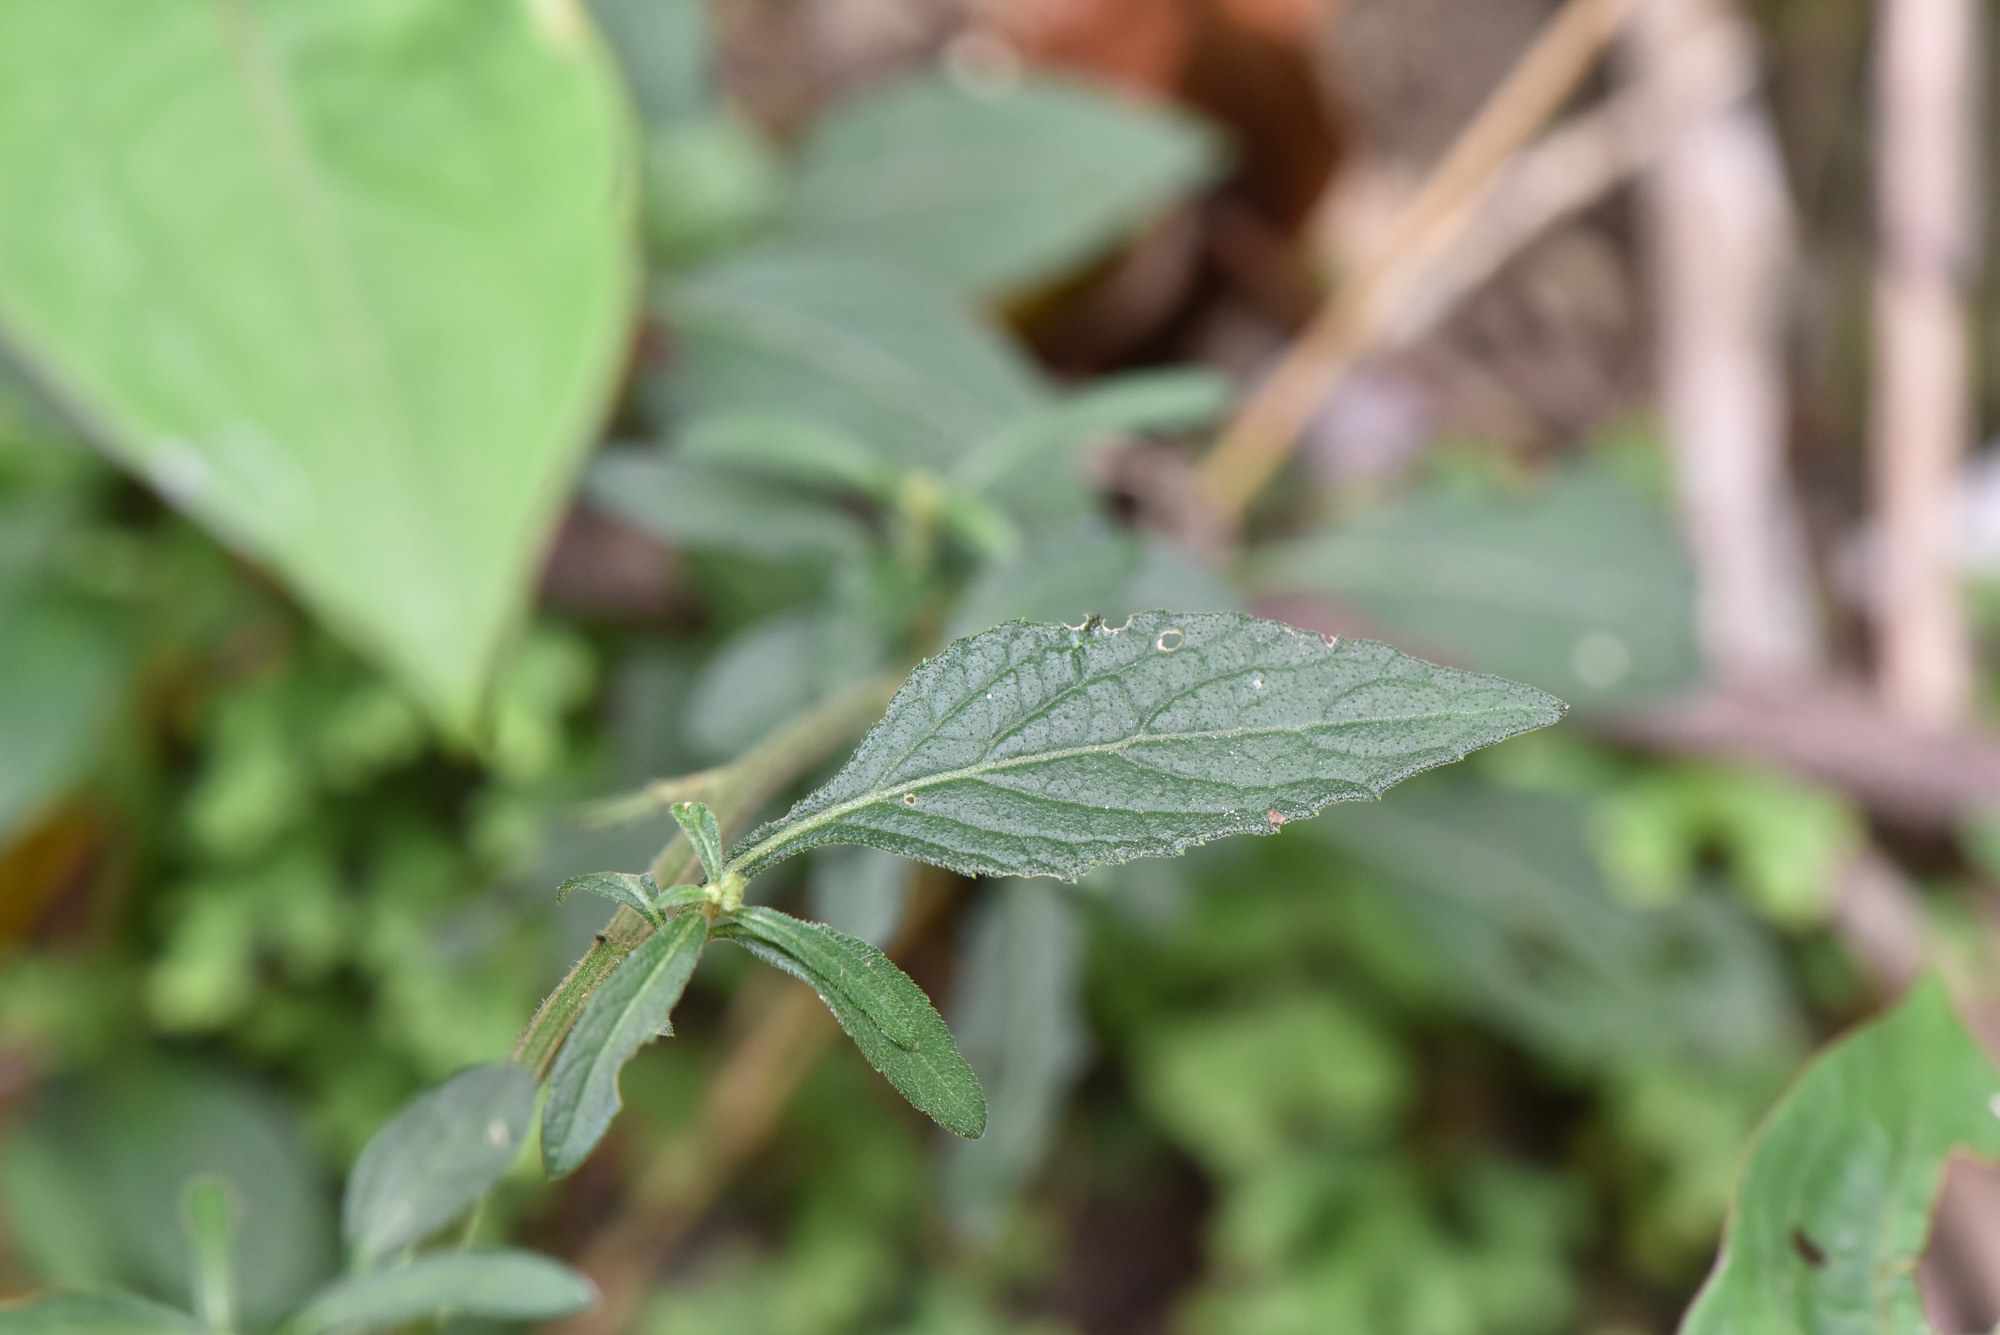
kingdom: Plantae
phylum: Tracheophyta
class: Magnoliopsida
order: Asterales
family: Asteraceae
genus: Cyanthillium
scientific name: Cyanthillium cinereum
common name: Little ironweed
